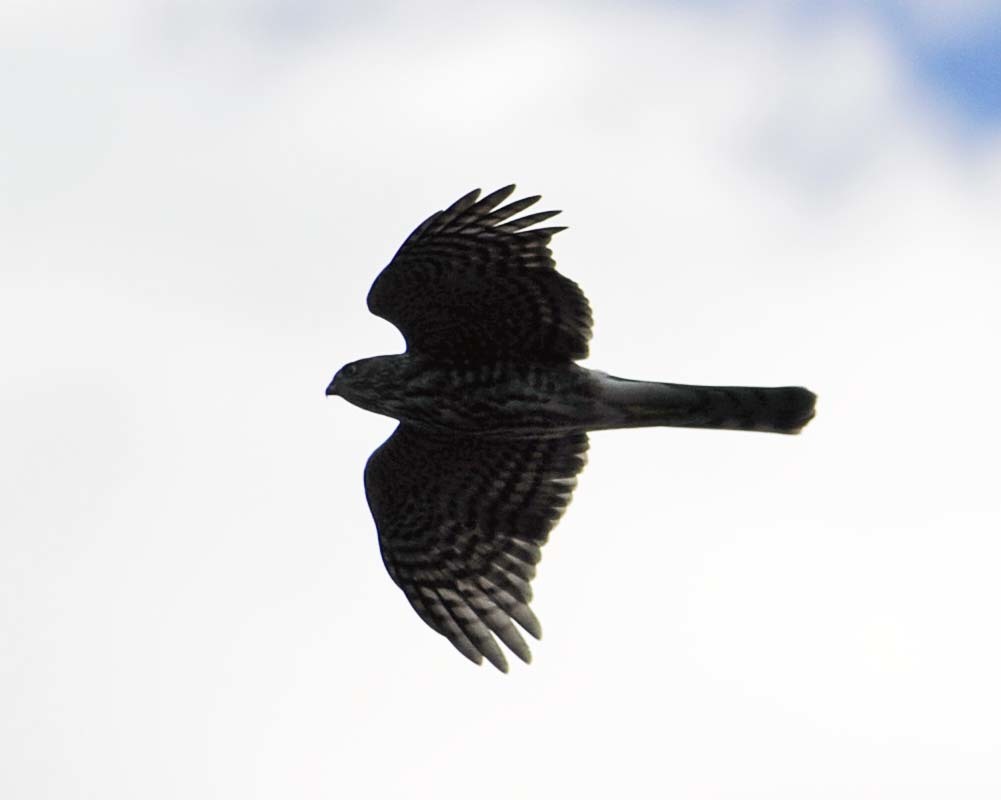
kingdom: Animalia
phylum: Chordata
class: Aves
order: Accipitriformes
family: Accipitridae
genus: Accipiter
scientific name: Accipiter striatus
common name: Sharp-shinned hawk
